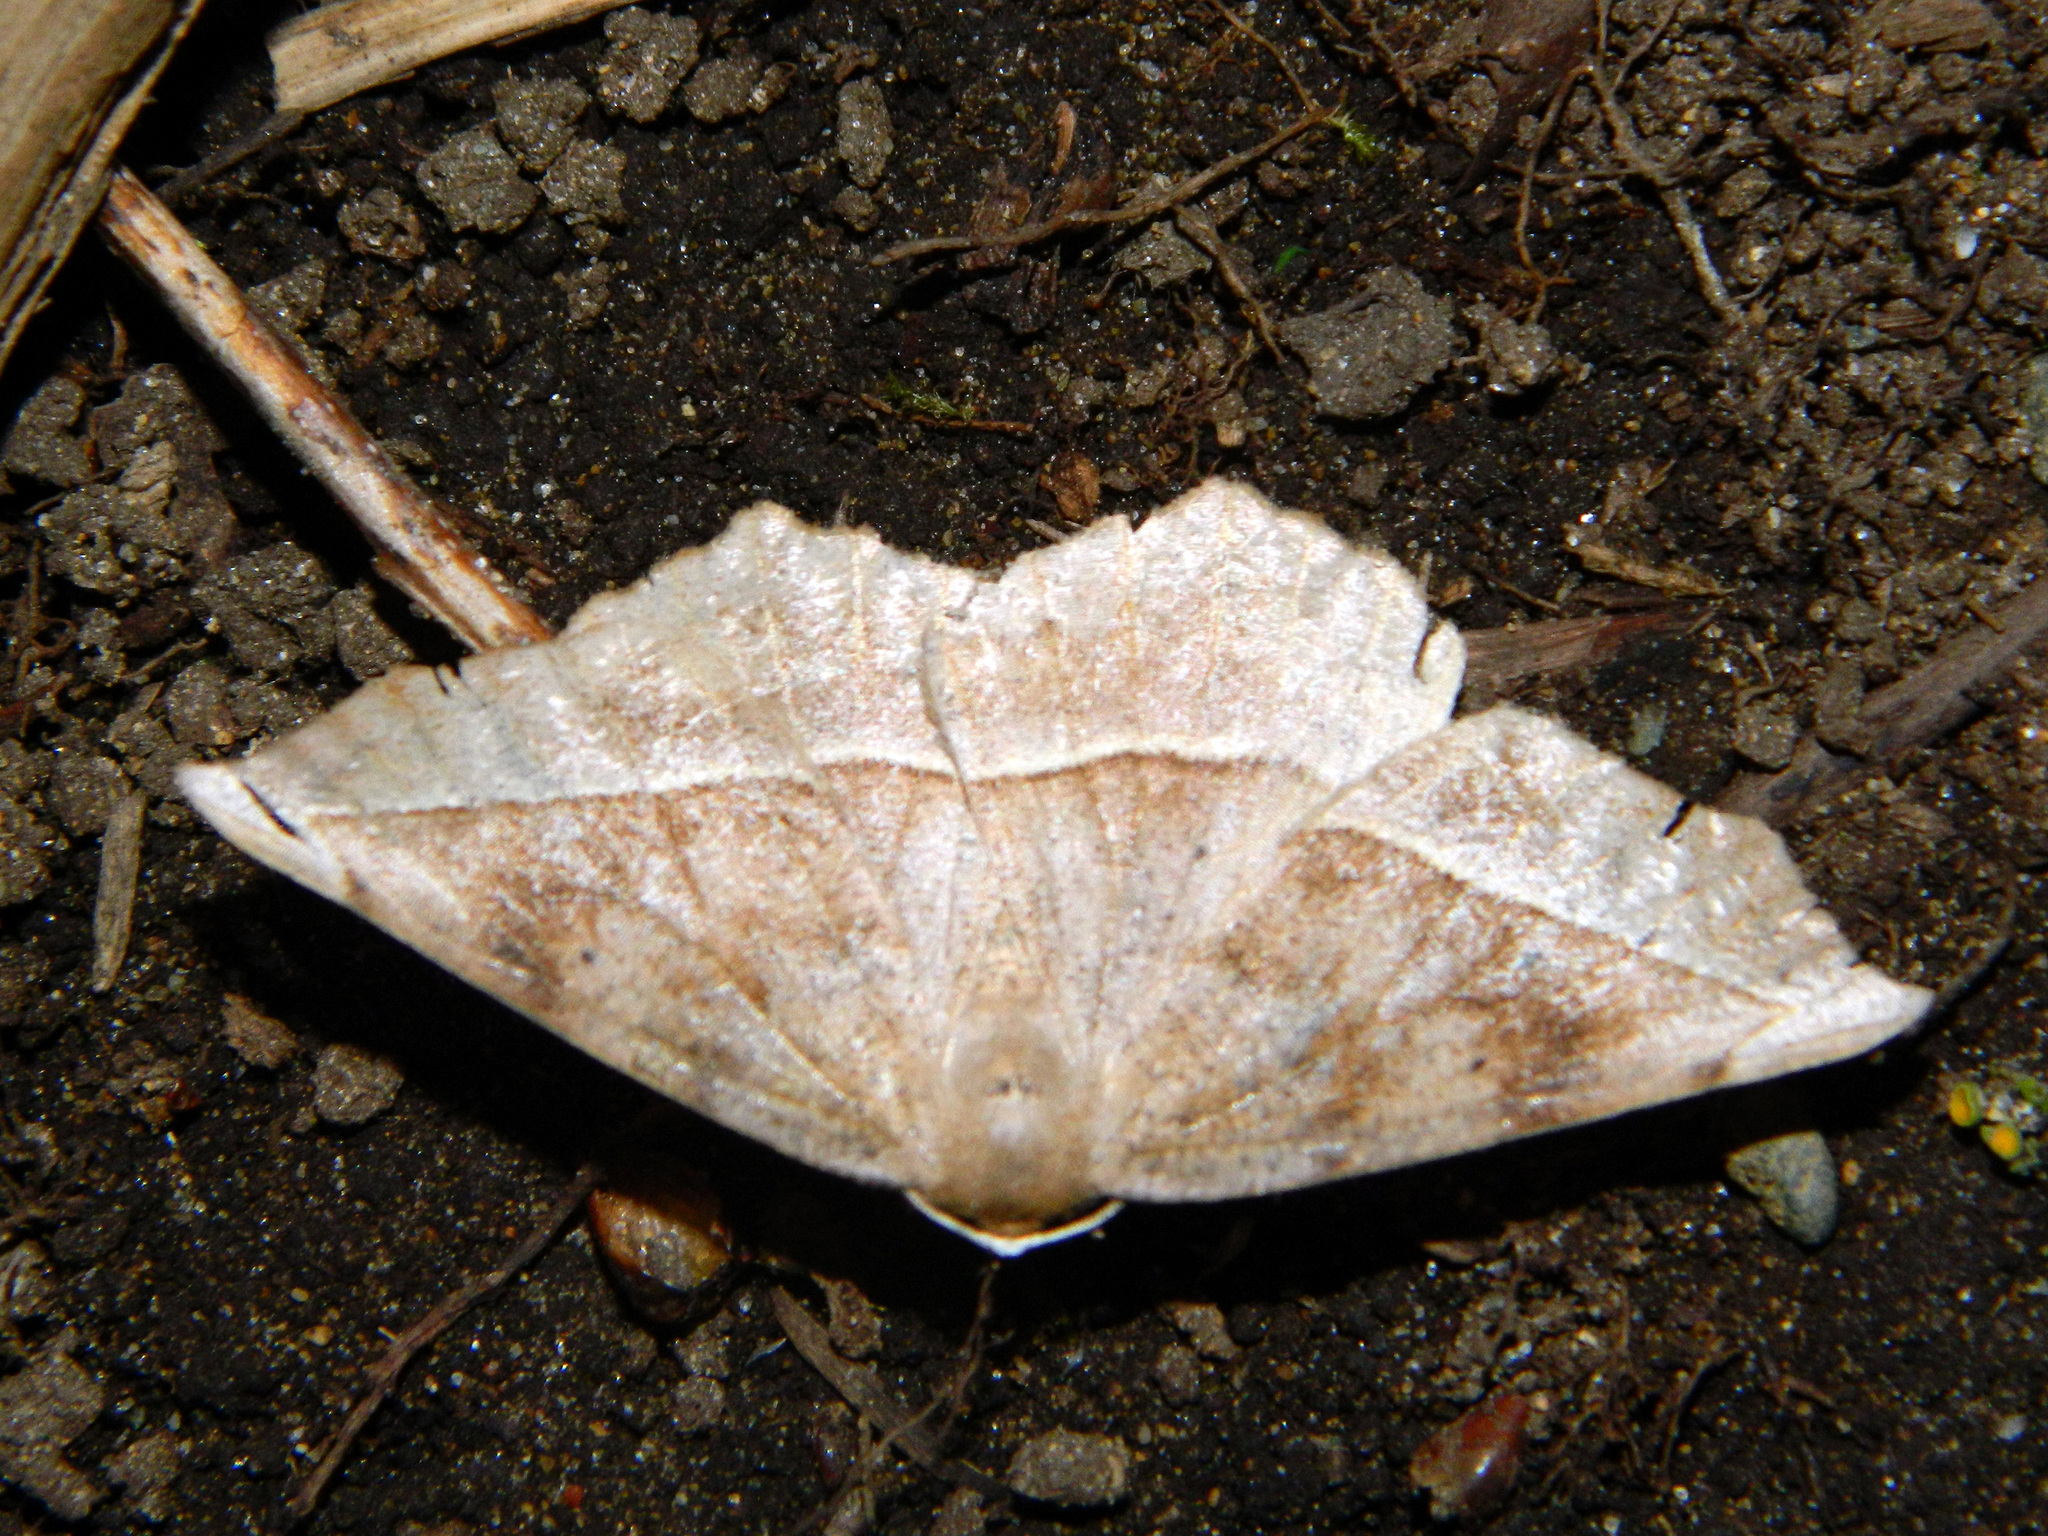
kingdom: Animalia
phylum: Arthropoda
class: Insecta
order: Lepidoptera
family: Geometridae
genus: Eutrapela
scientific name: Eutrapela clemataria
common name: Curved-toothed geometer
